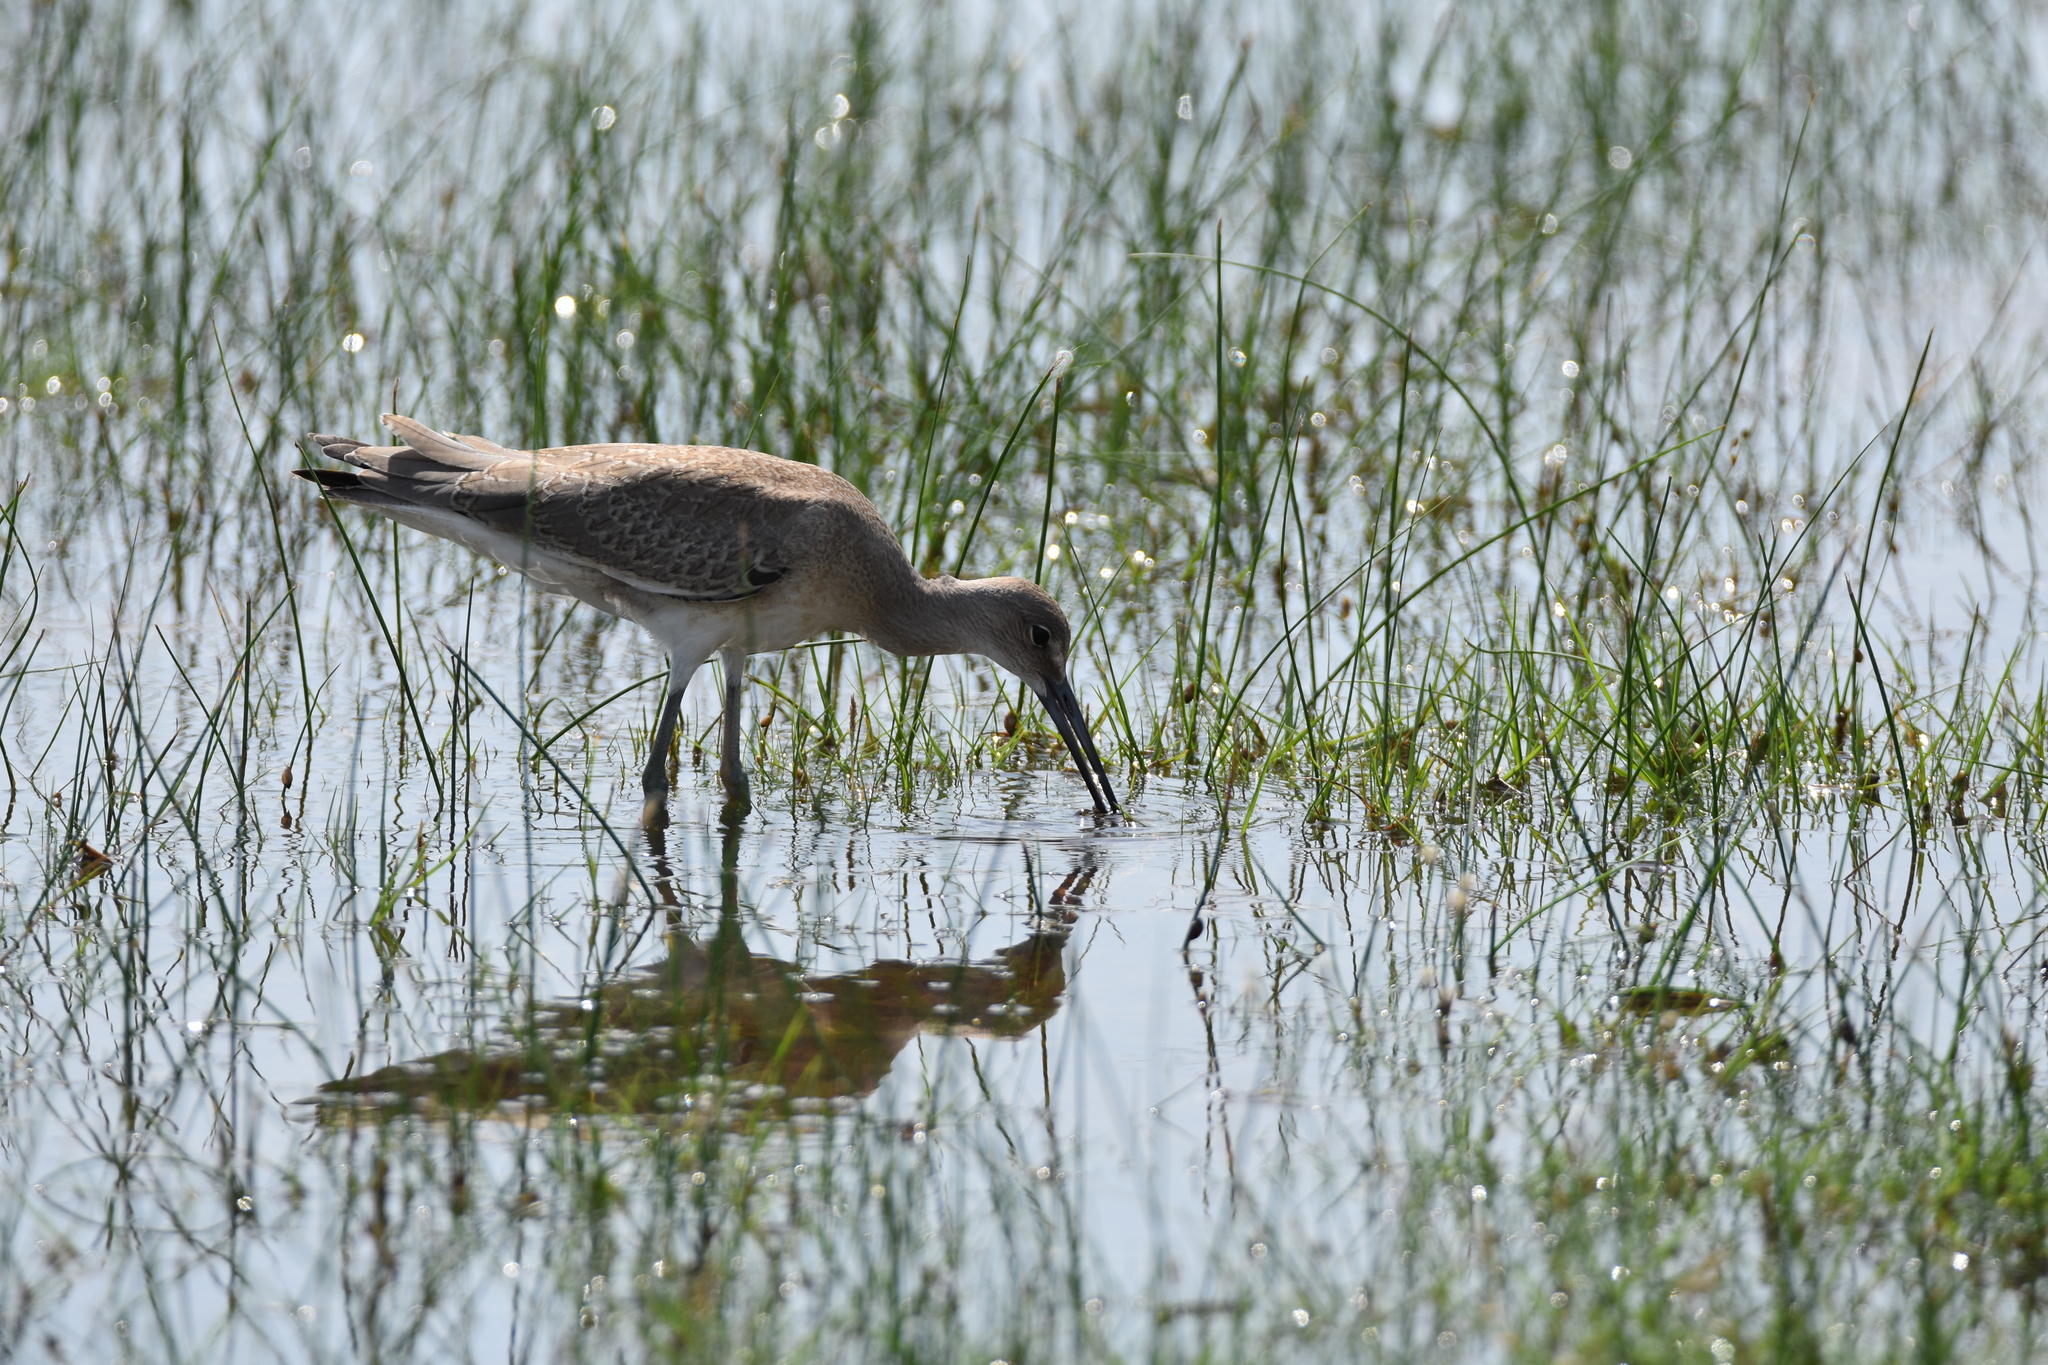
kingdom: Animalia
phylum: Chordata
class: Aves
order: Charadriiformes
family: Scolopacidae
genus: Tringa
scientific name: Tringa semipalmata
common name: Willet
